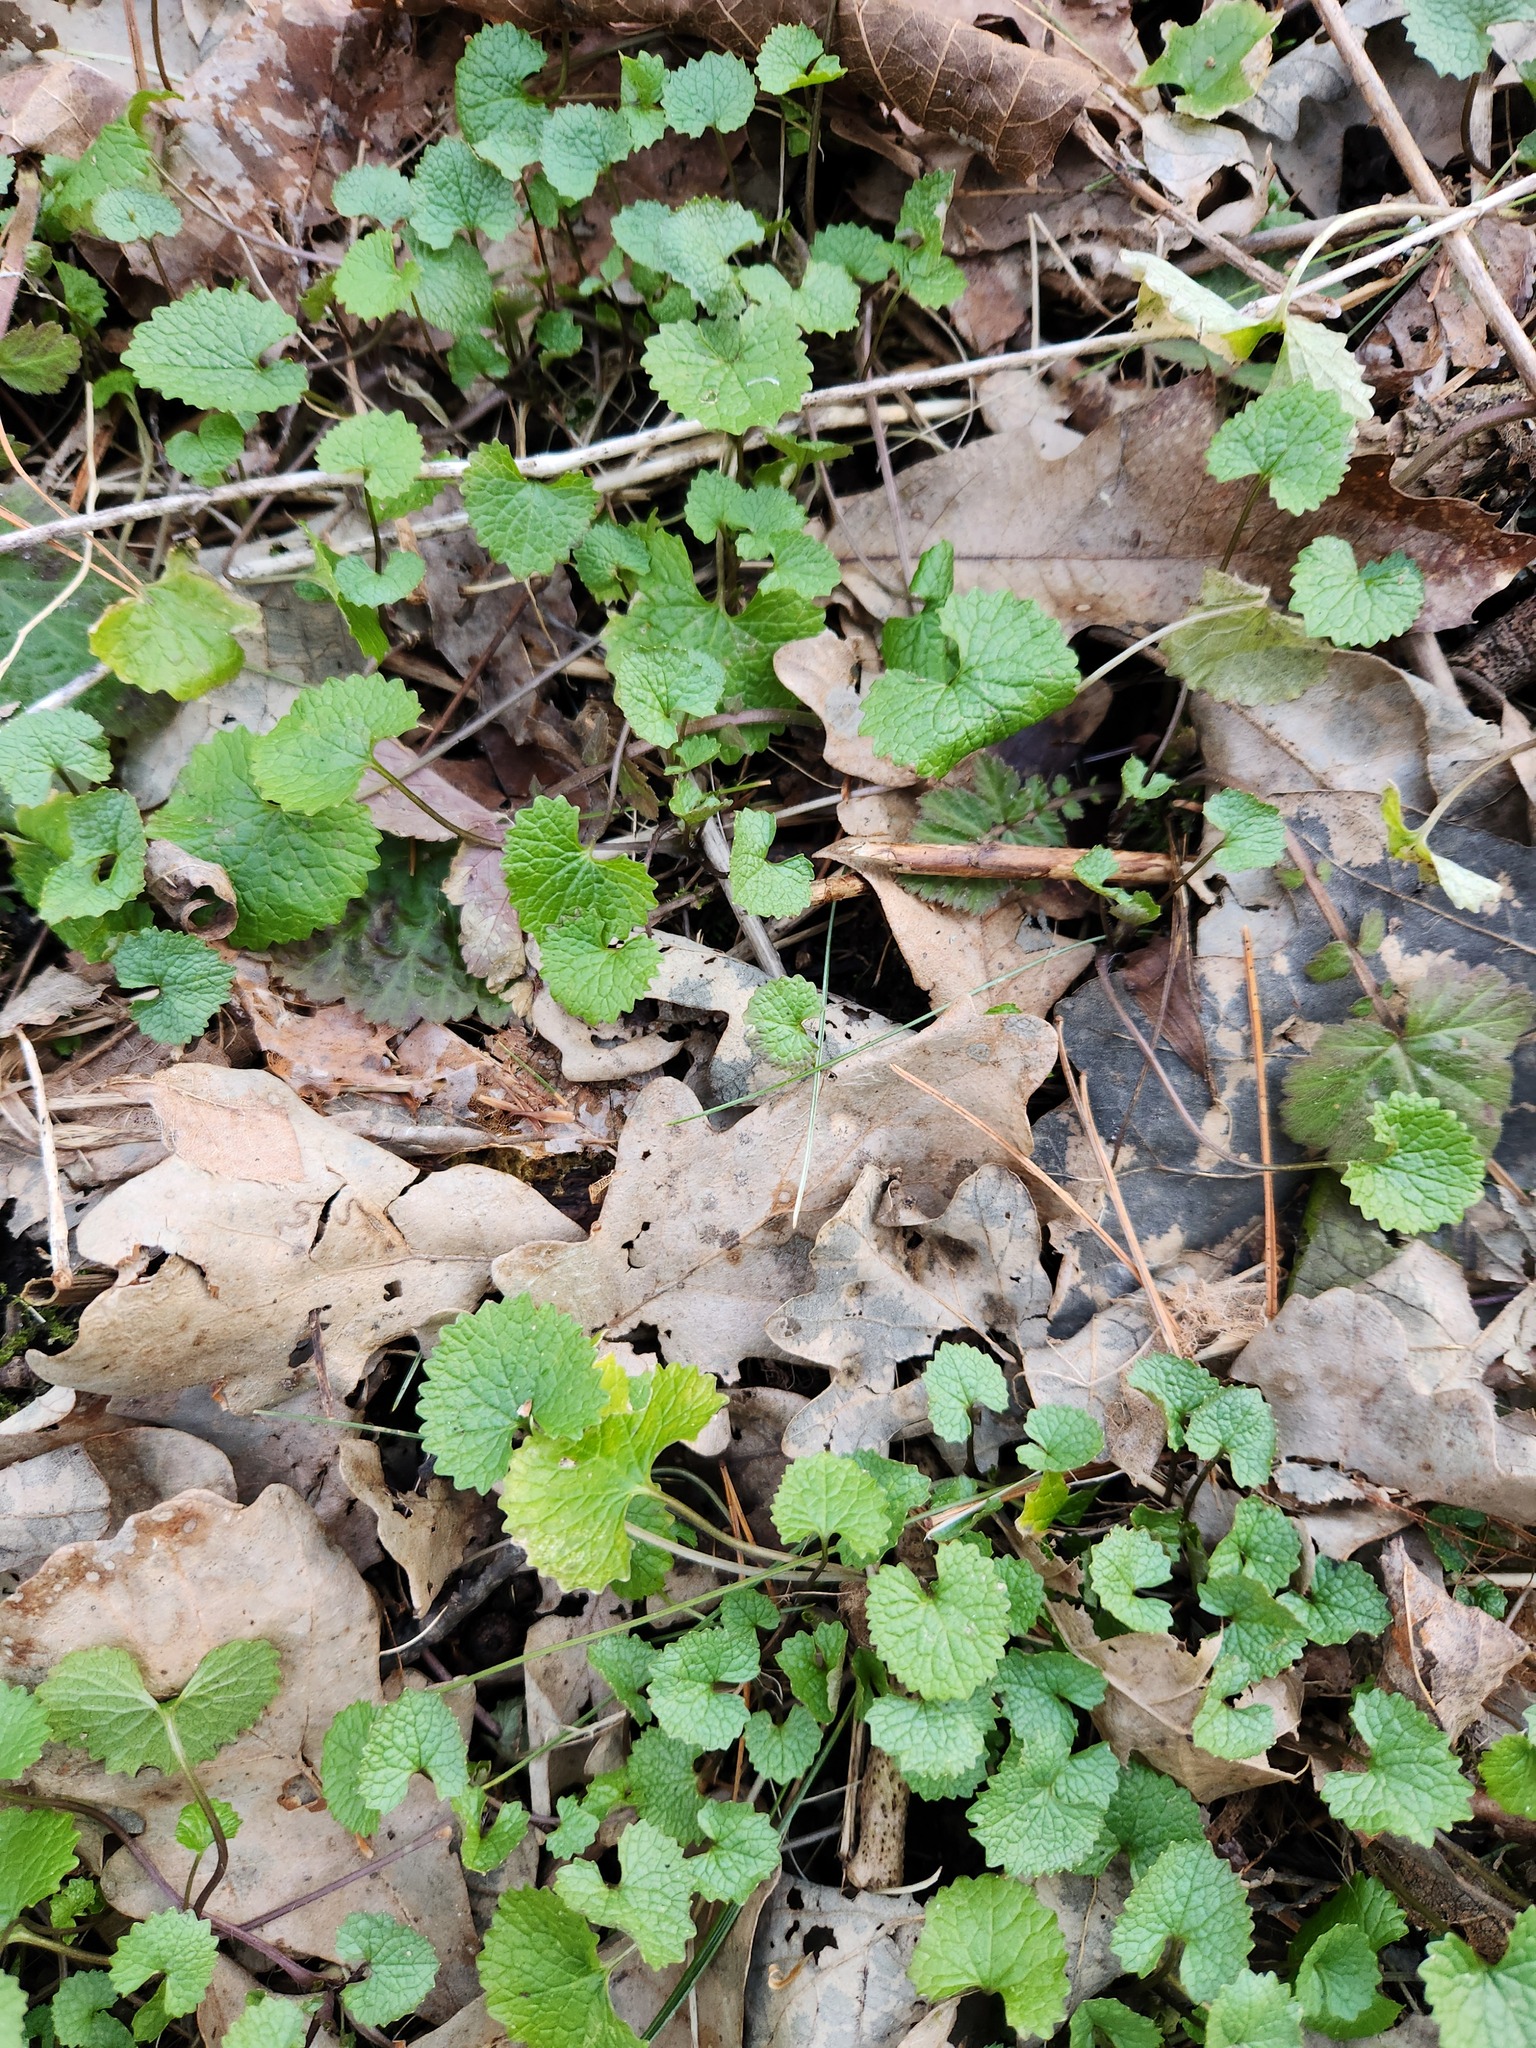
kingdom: Plantae
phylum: Tracheophyta
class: Magnoliopsida
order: Brassicales
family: Brassicaceae
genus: Alliaria
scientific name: Alliaria petiolata
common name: Garlic mustard
